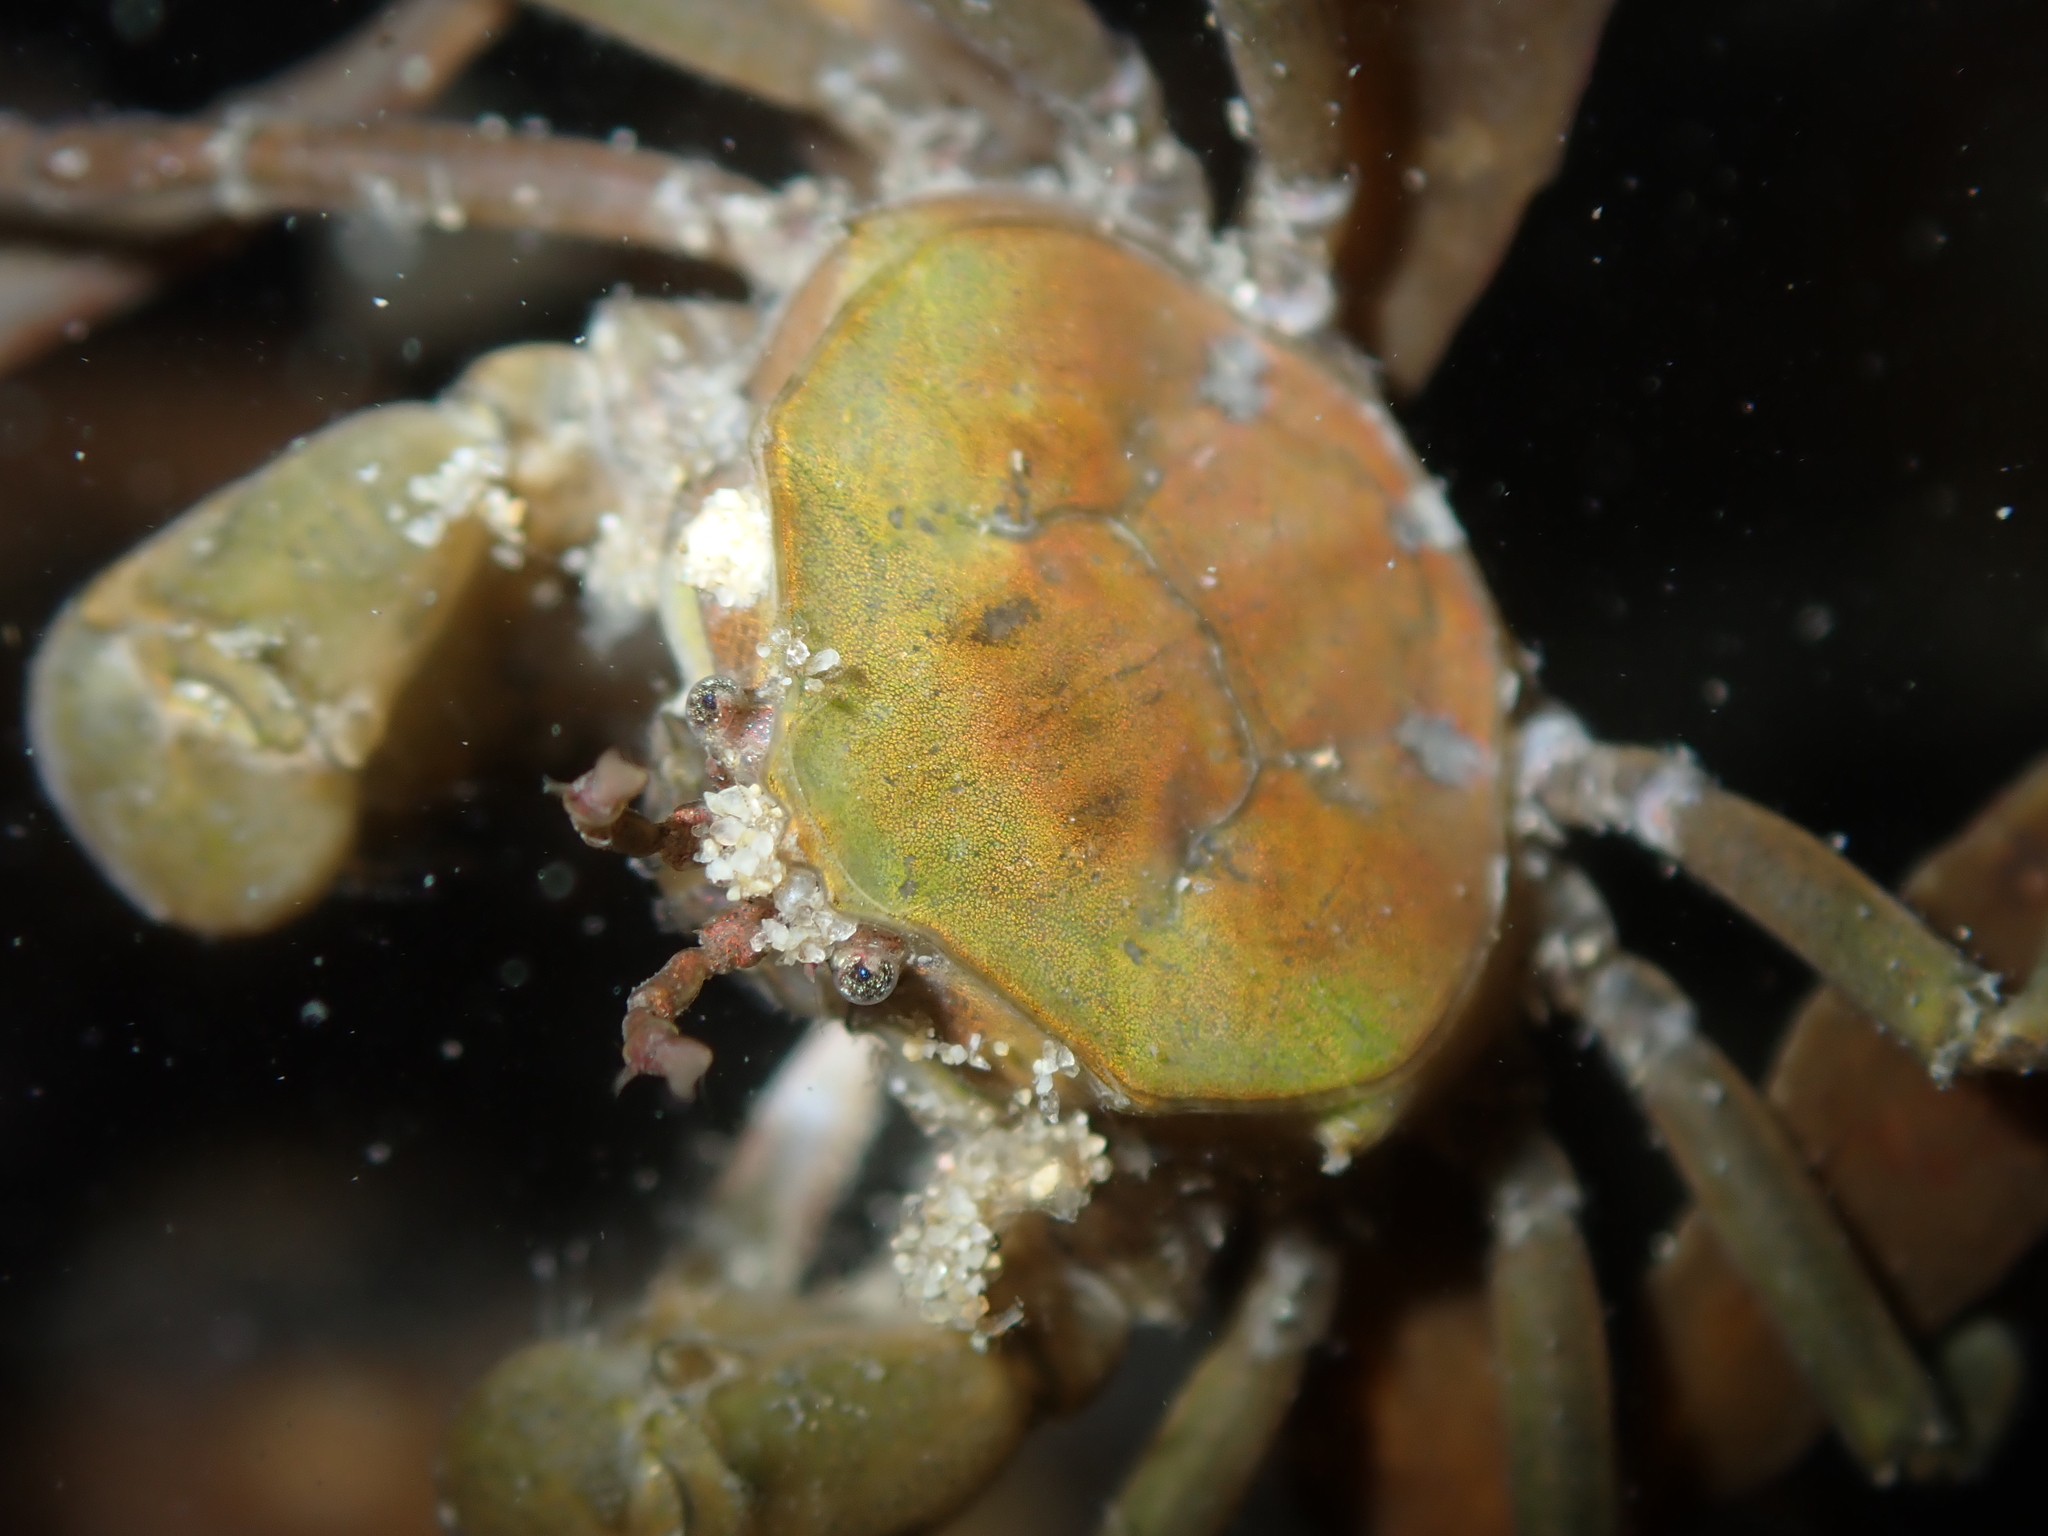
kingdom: Animalia
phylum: Arthropoda
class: Malacostraca
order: Decapoda
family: Hymenosomatidae
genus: Halicarcinus
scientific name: Halicarcinus cookii
